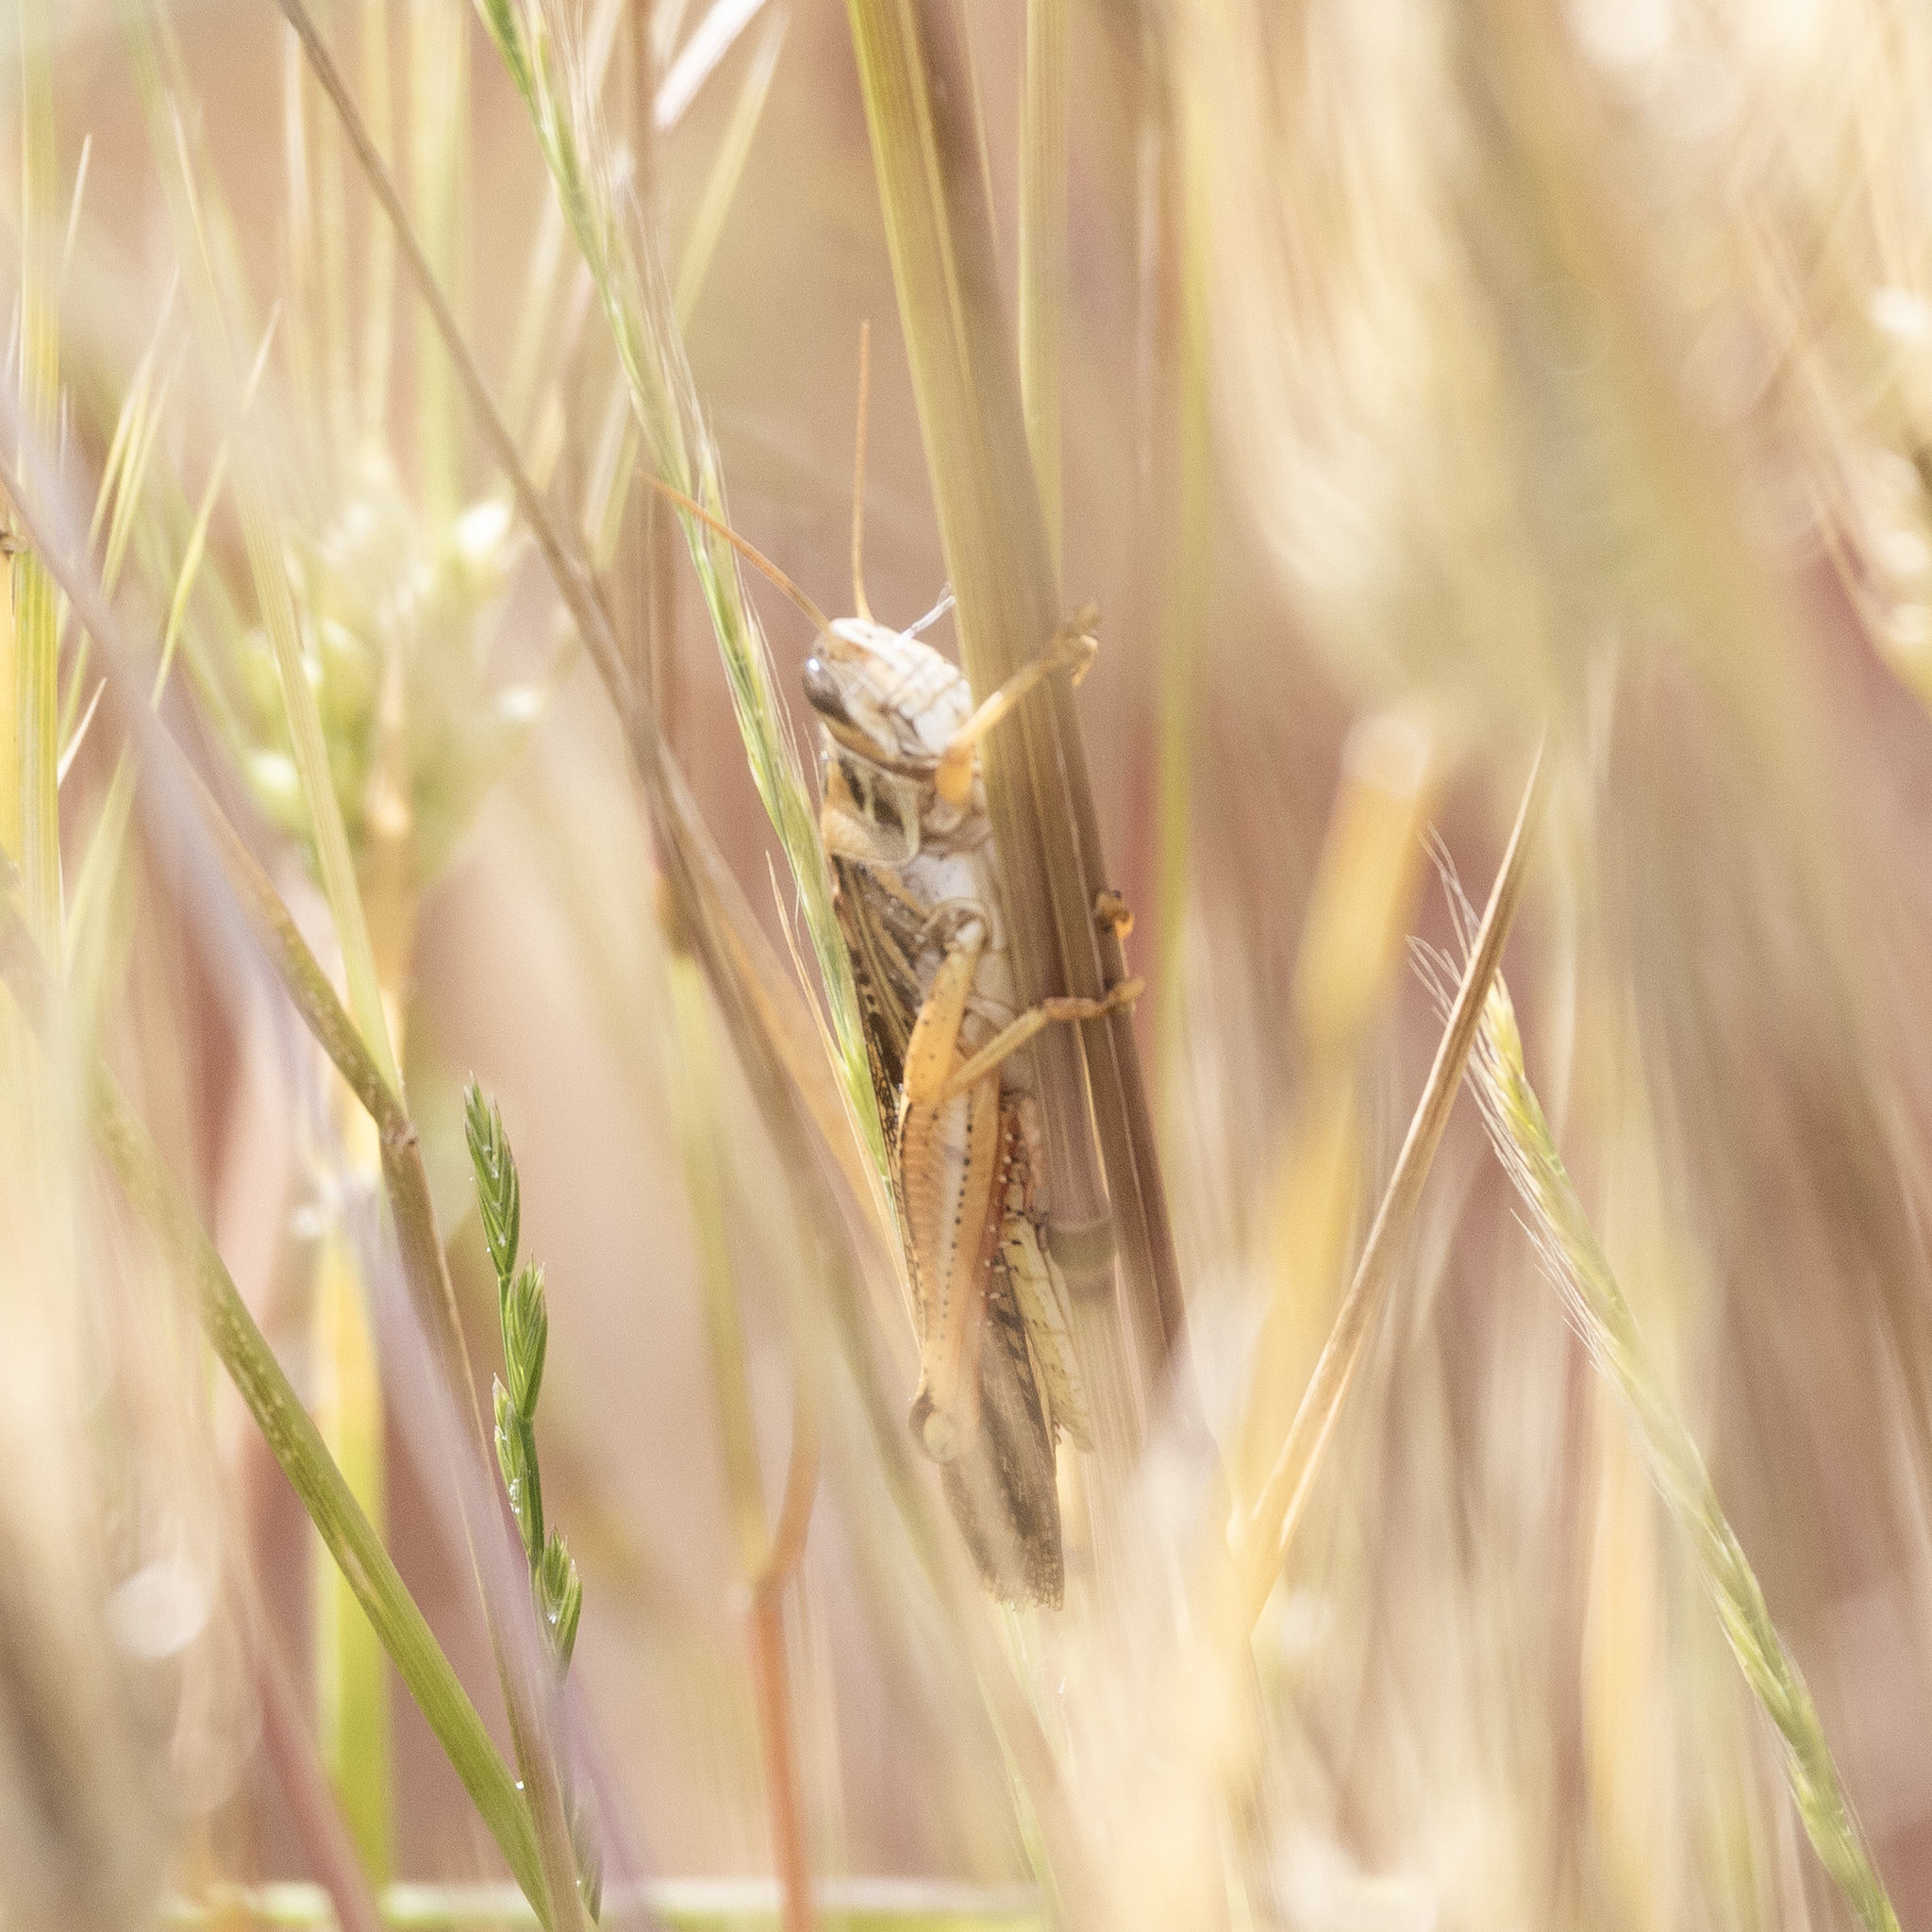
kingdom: Animalia
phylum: Arthropoda
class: Insecta
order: Orthoptera
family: Acrididae
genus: Schistocerca
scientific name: Schistocerca americana
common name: American bird locust
